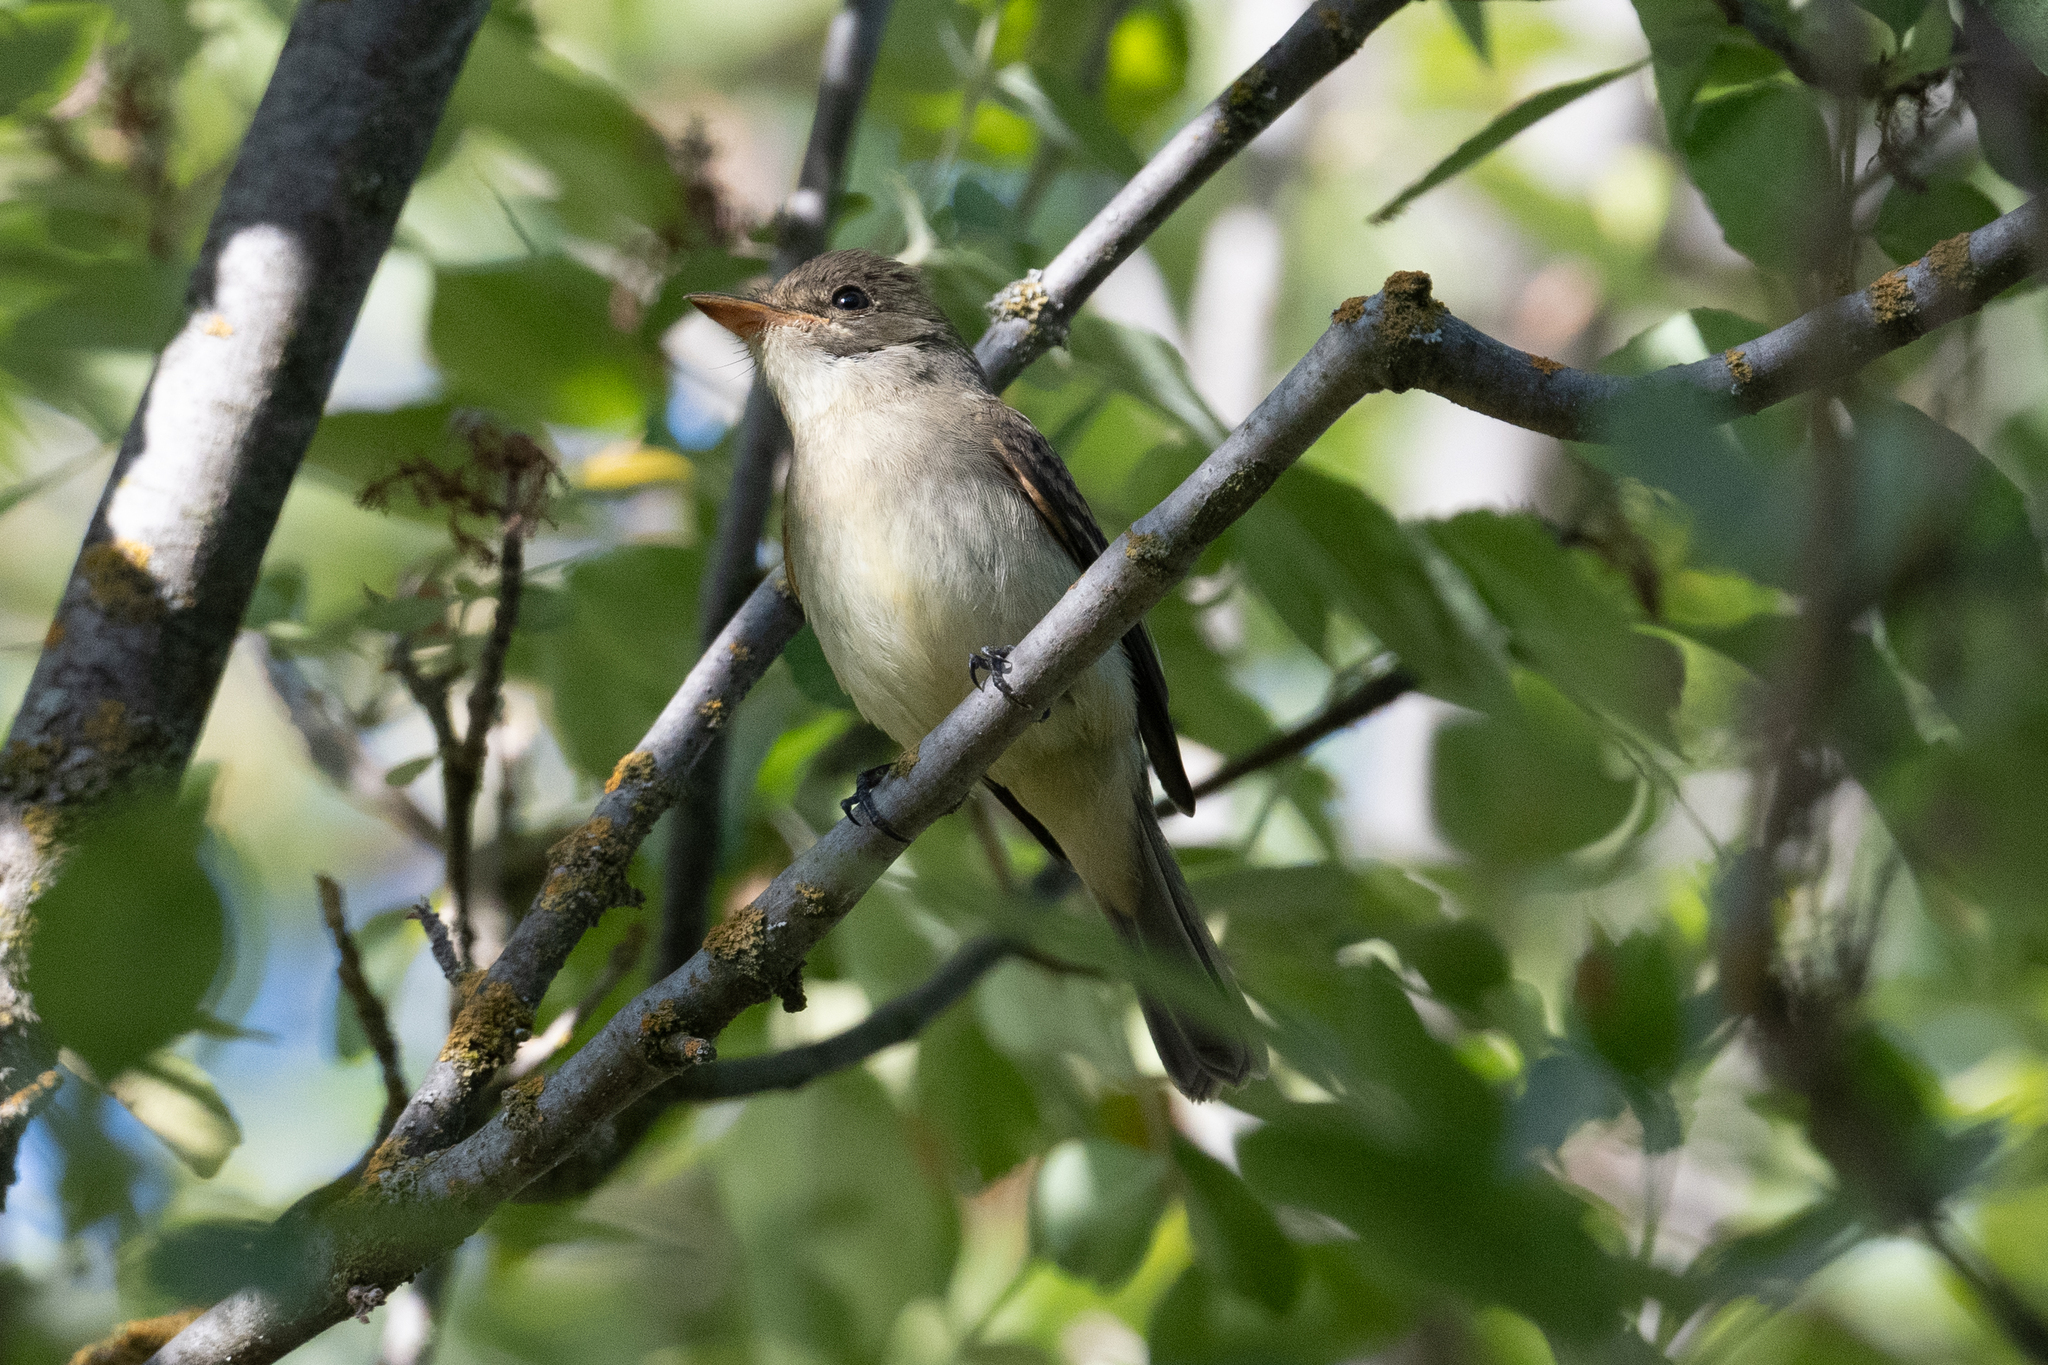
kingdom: Animalia
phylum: Chordata
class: Aves
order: Passeriformes
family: Tyrannidae
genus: Empidonax
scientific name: Empidonax traillii
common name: Willow flycatcher
